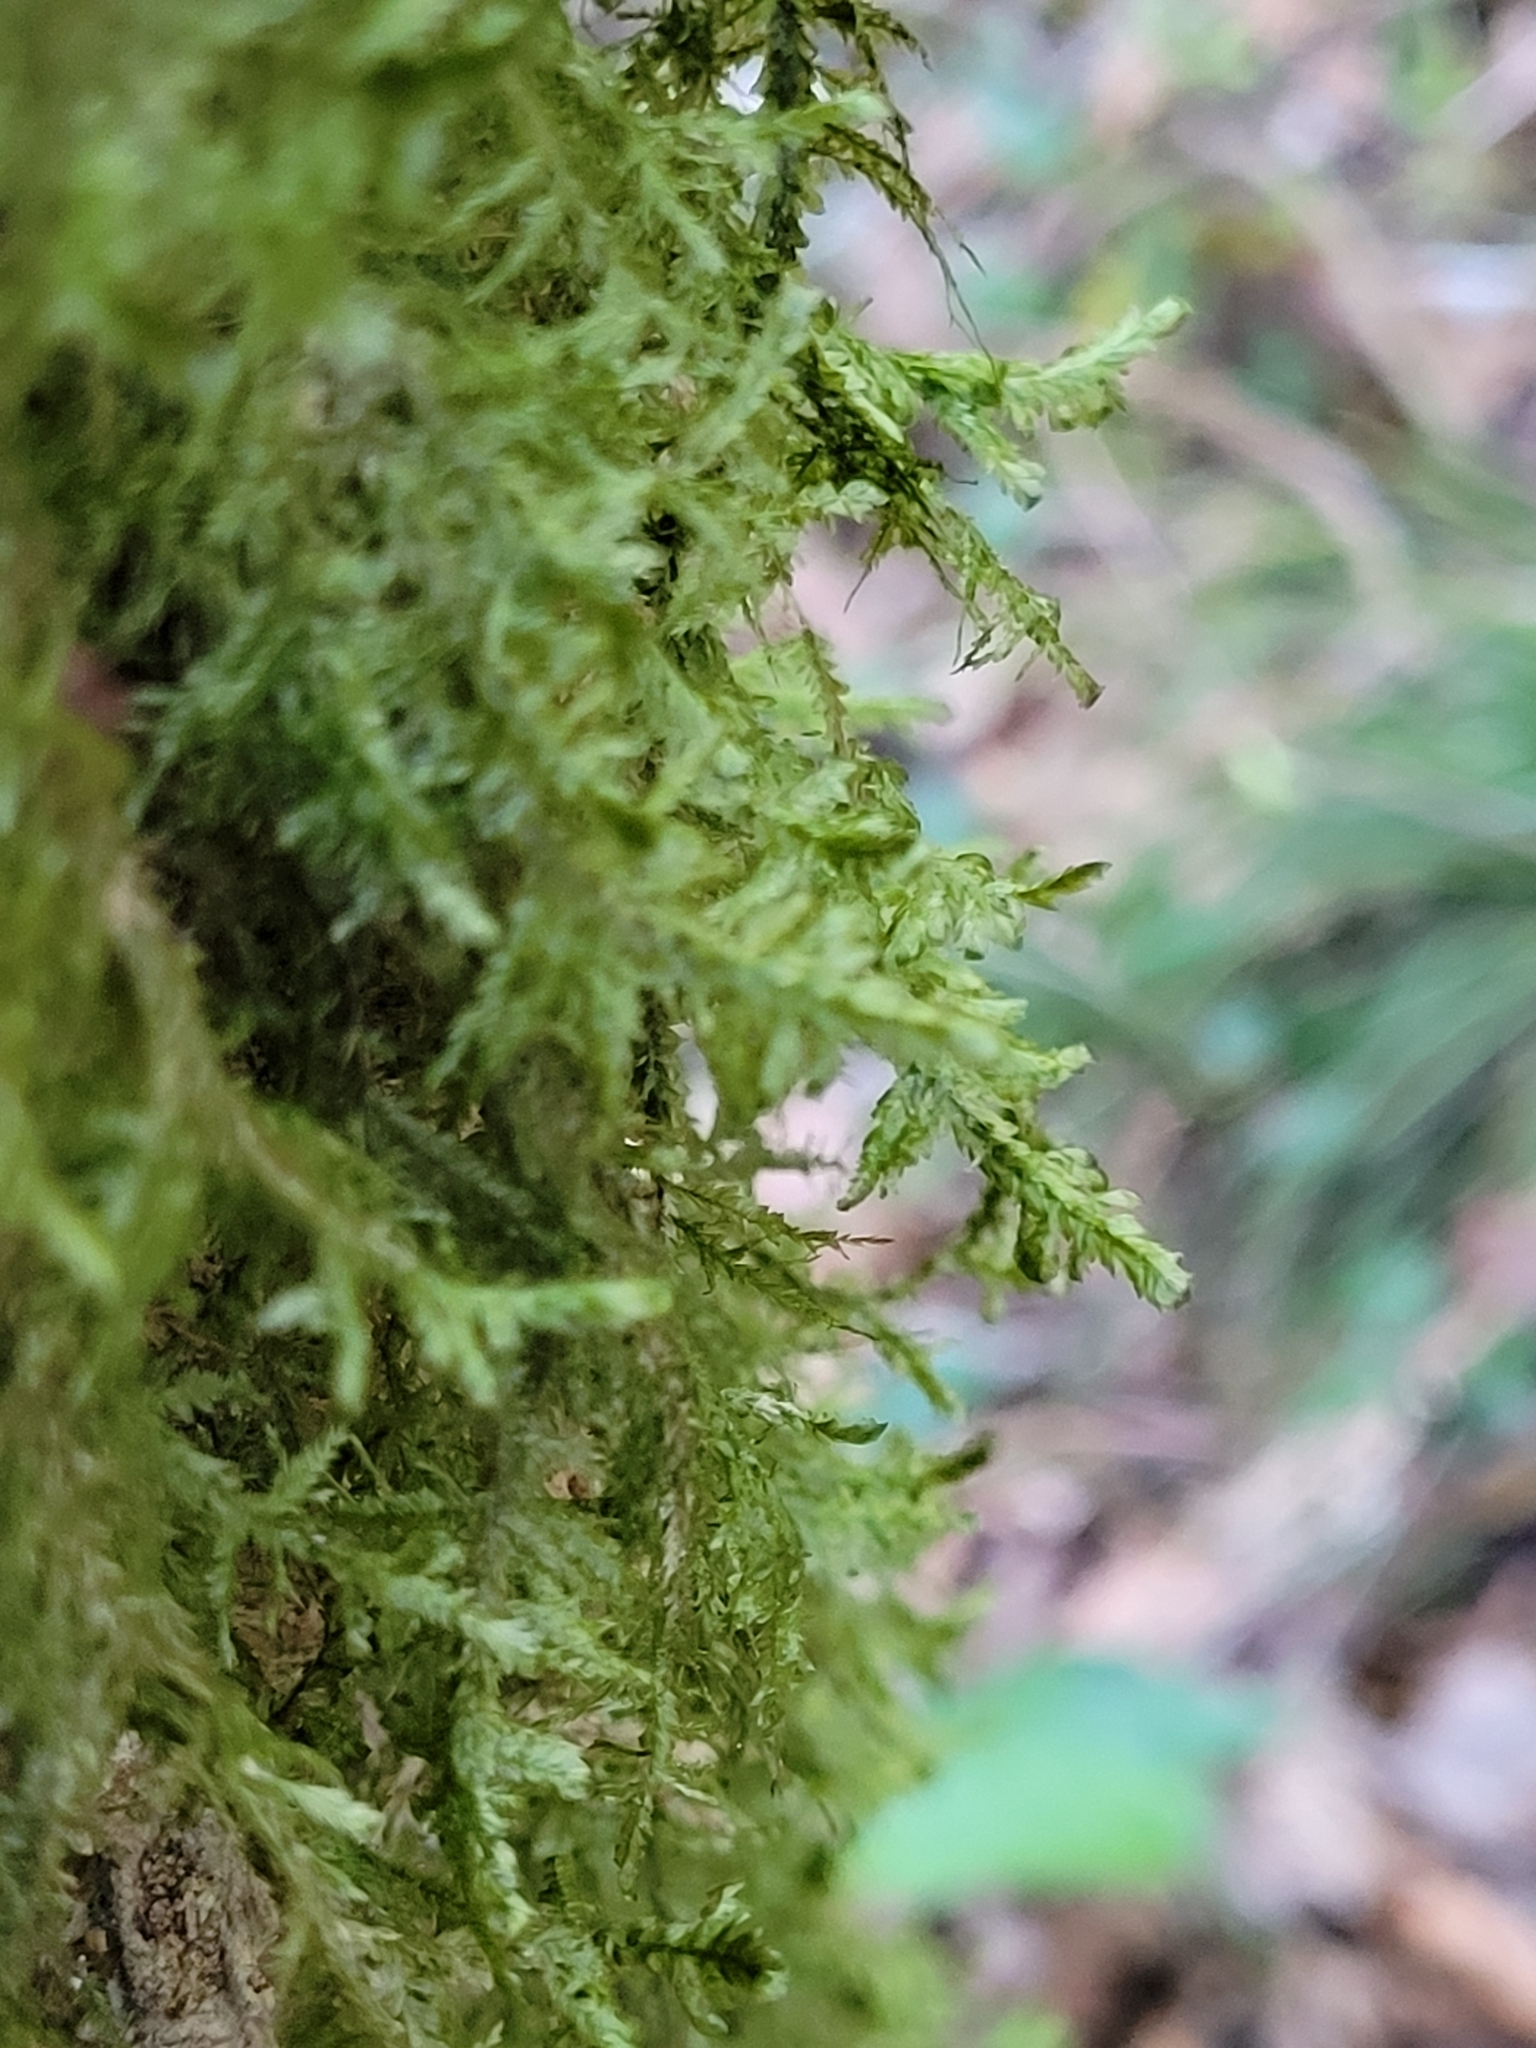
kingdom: Plantae
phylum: Bryophyta
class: Bryopsida
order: Hypnales
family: Neckeraceae
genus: Alleniella
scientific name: Alleniella complanata
